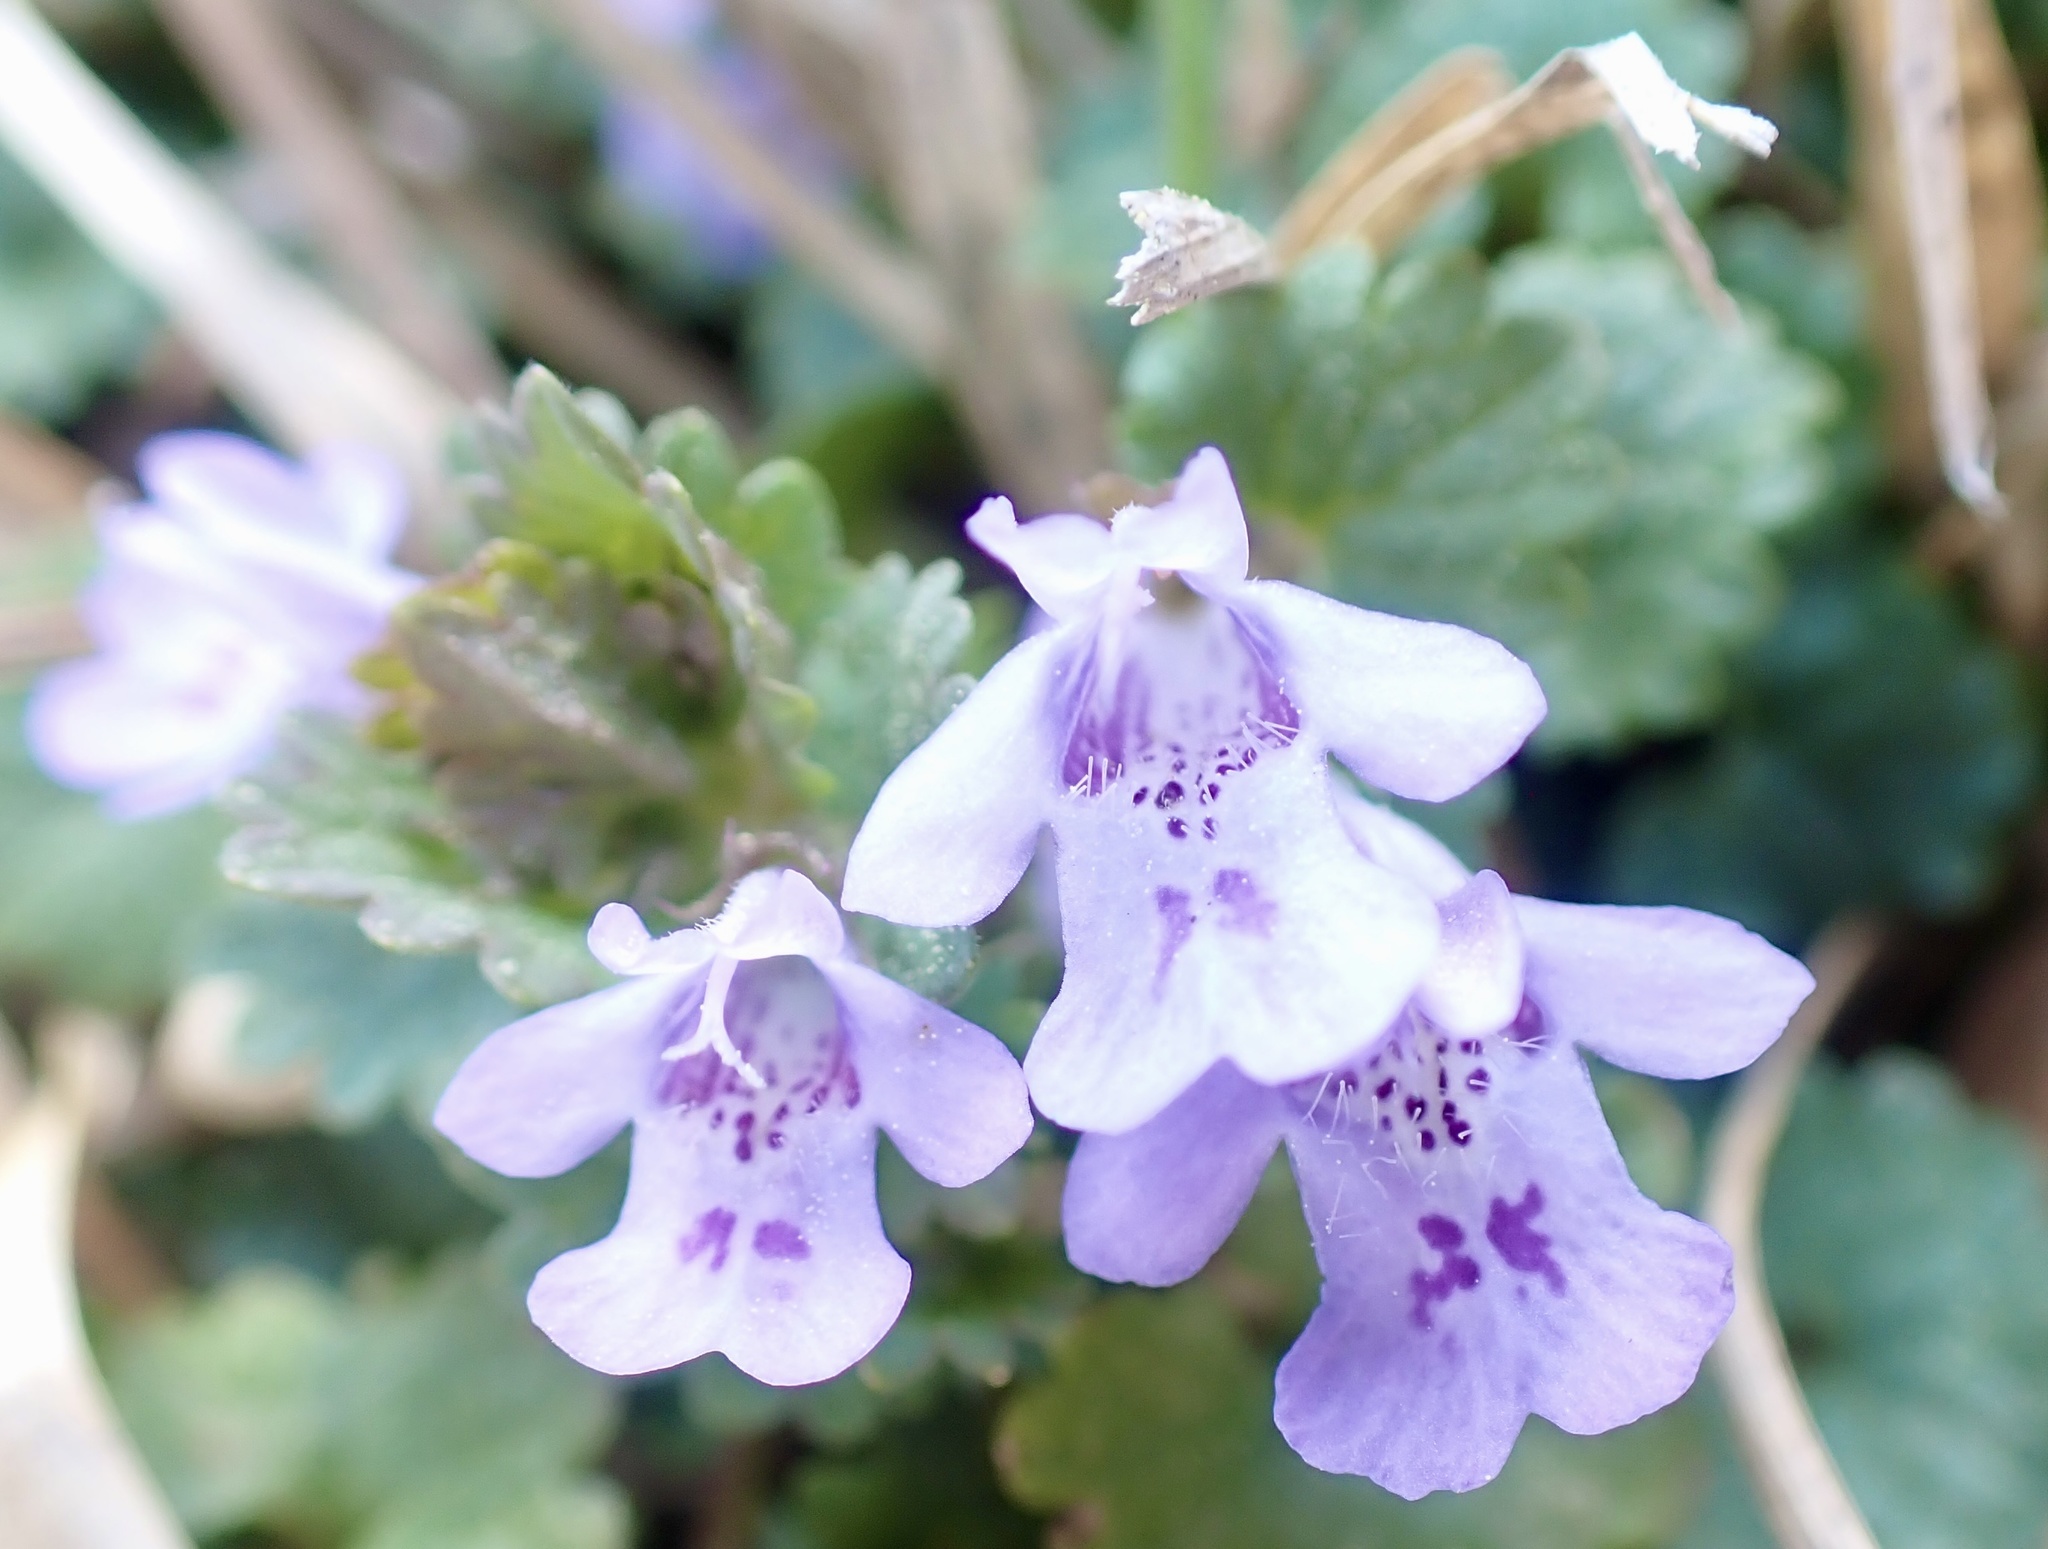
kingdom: Plantae
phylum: Tracheophyta
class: Magnoliopsida
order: Lamiales
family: Lamiaceae
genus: Glechoma
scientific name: Glechoma hederacea
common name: Ground ivy
